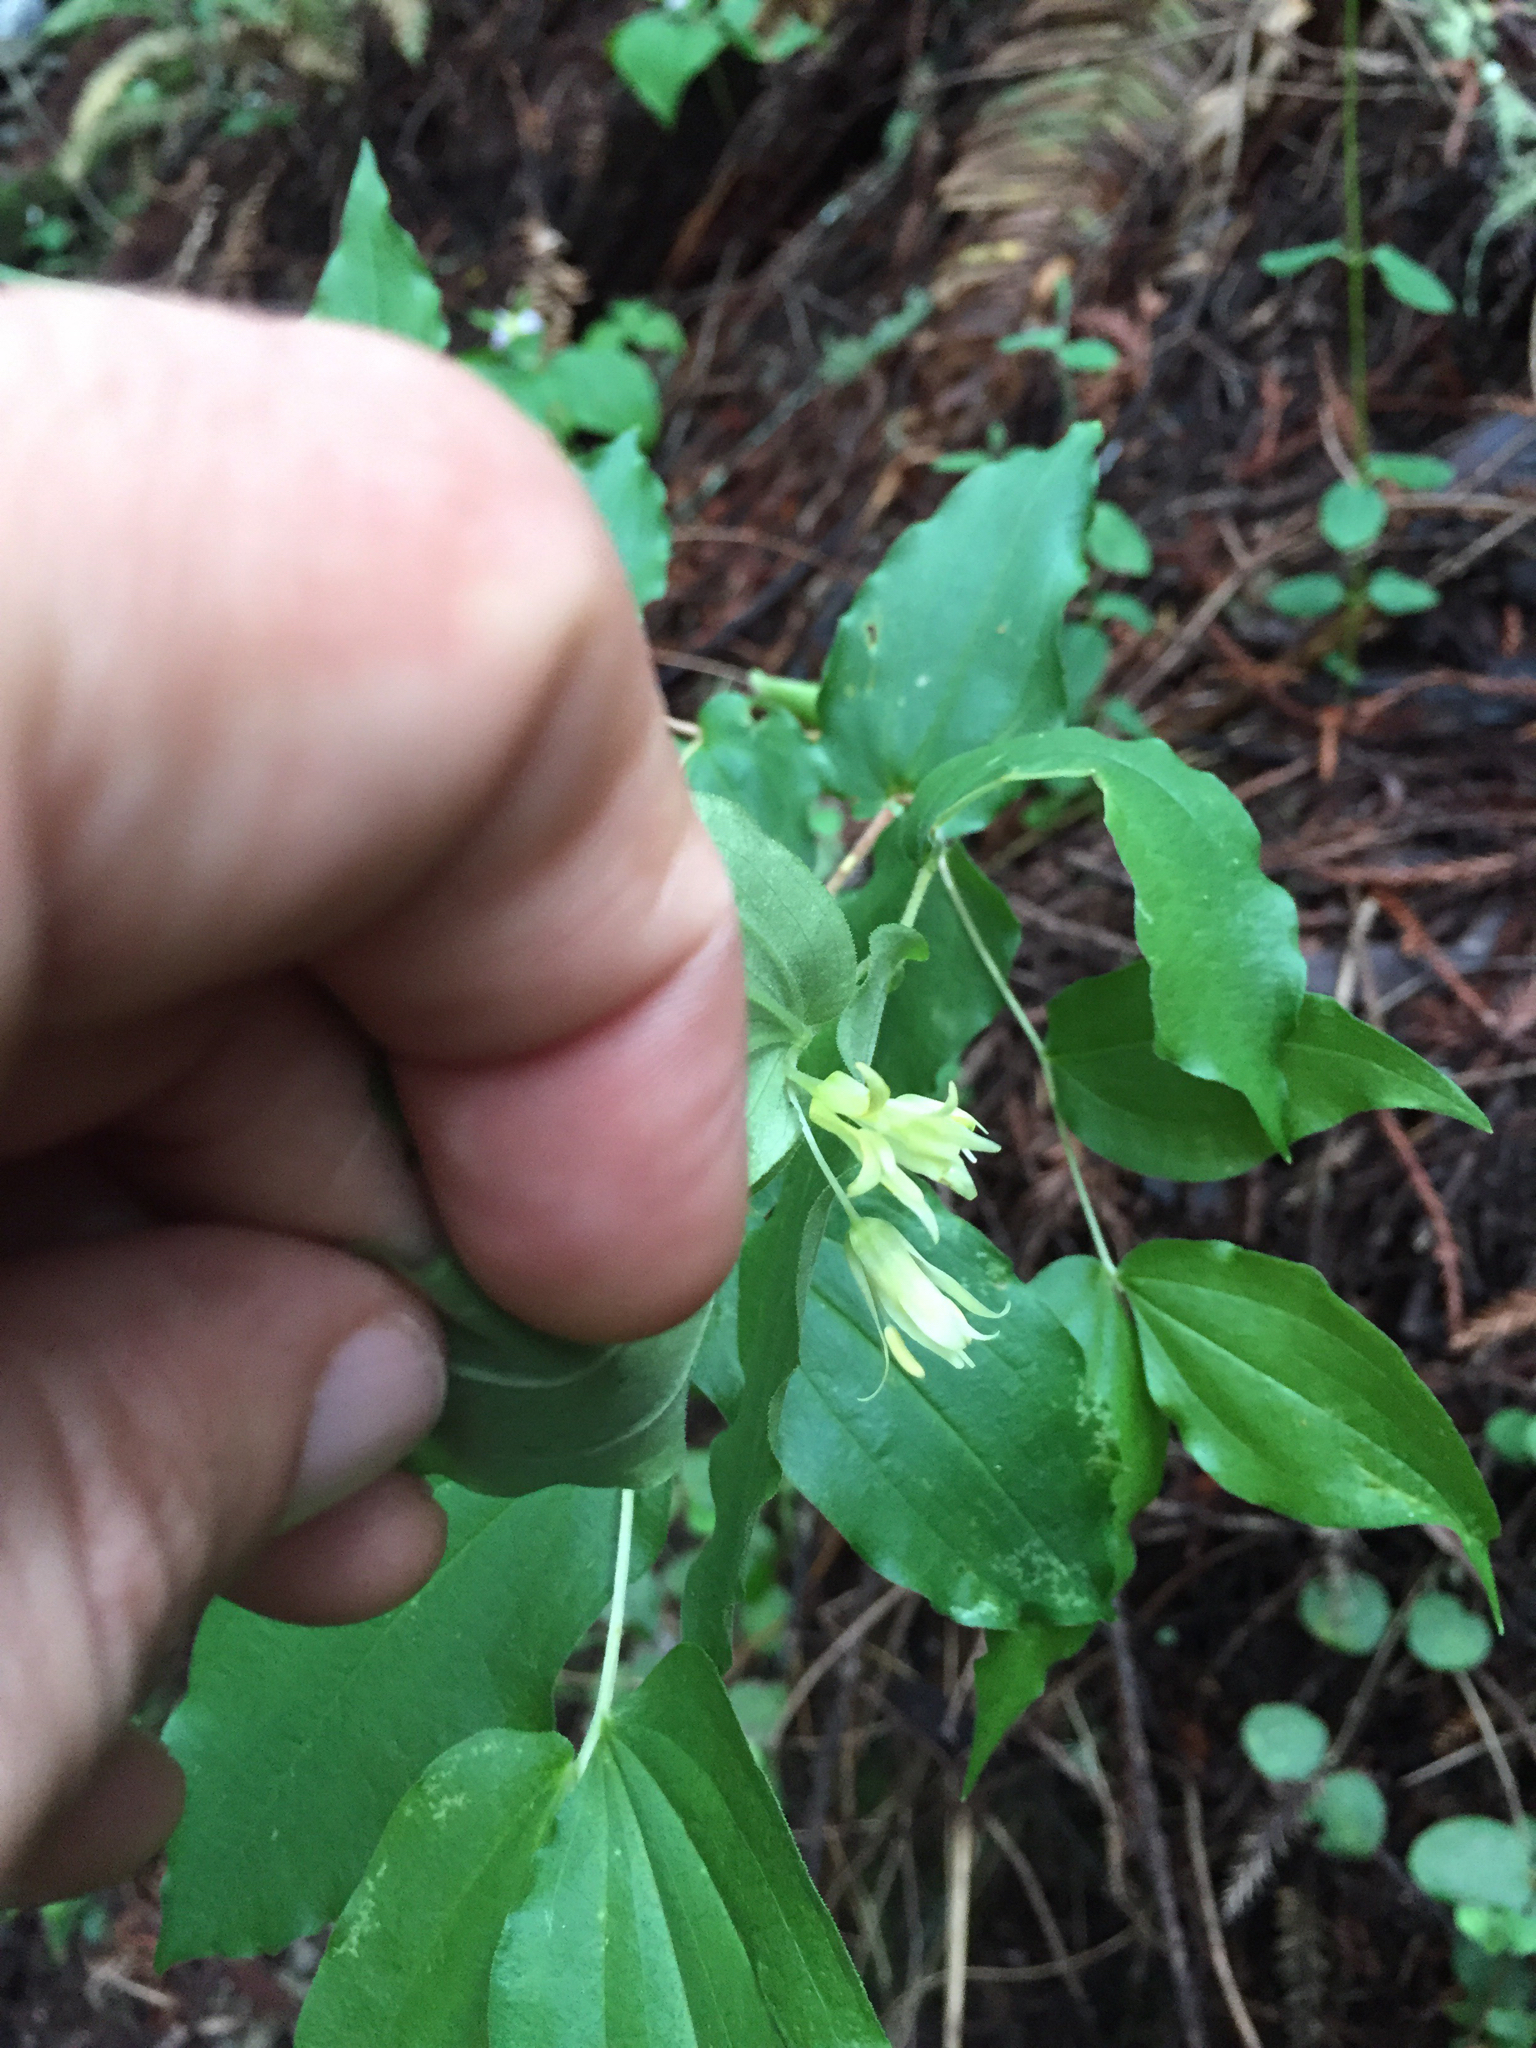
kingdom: Plantae
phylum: Tracheophyta
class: Liliopsida
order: Liliales
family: Liliaceae
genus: Prosartes
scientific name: Prosartes hookeri
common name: Fairy-bells
